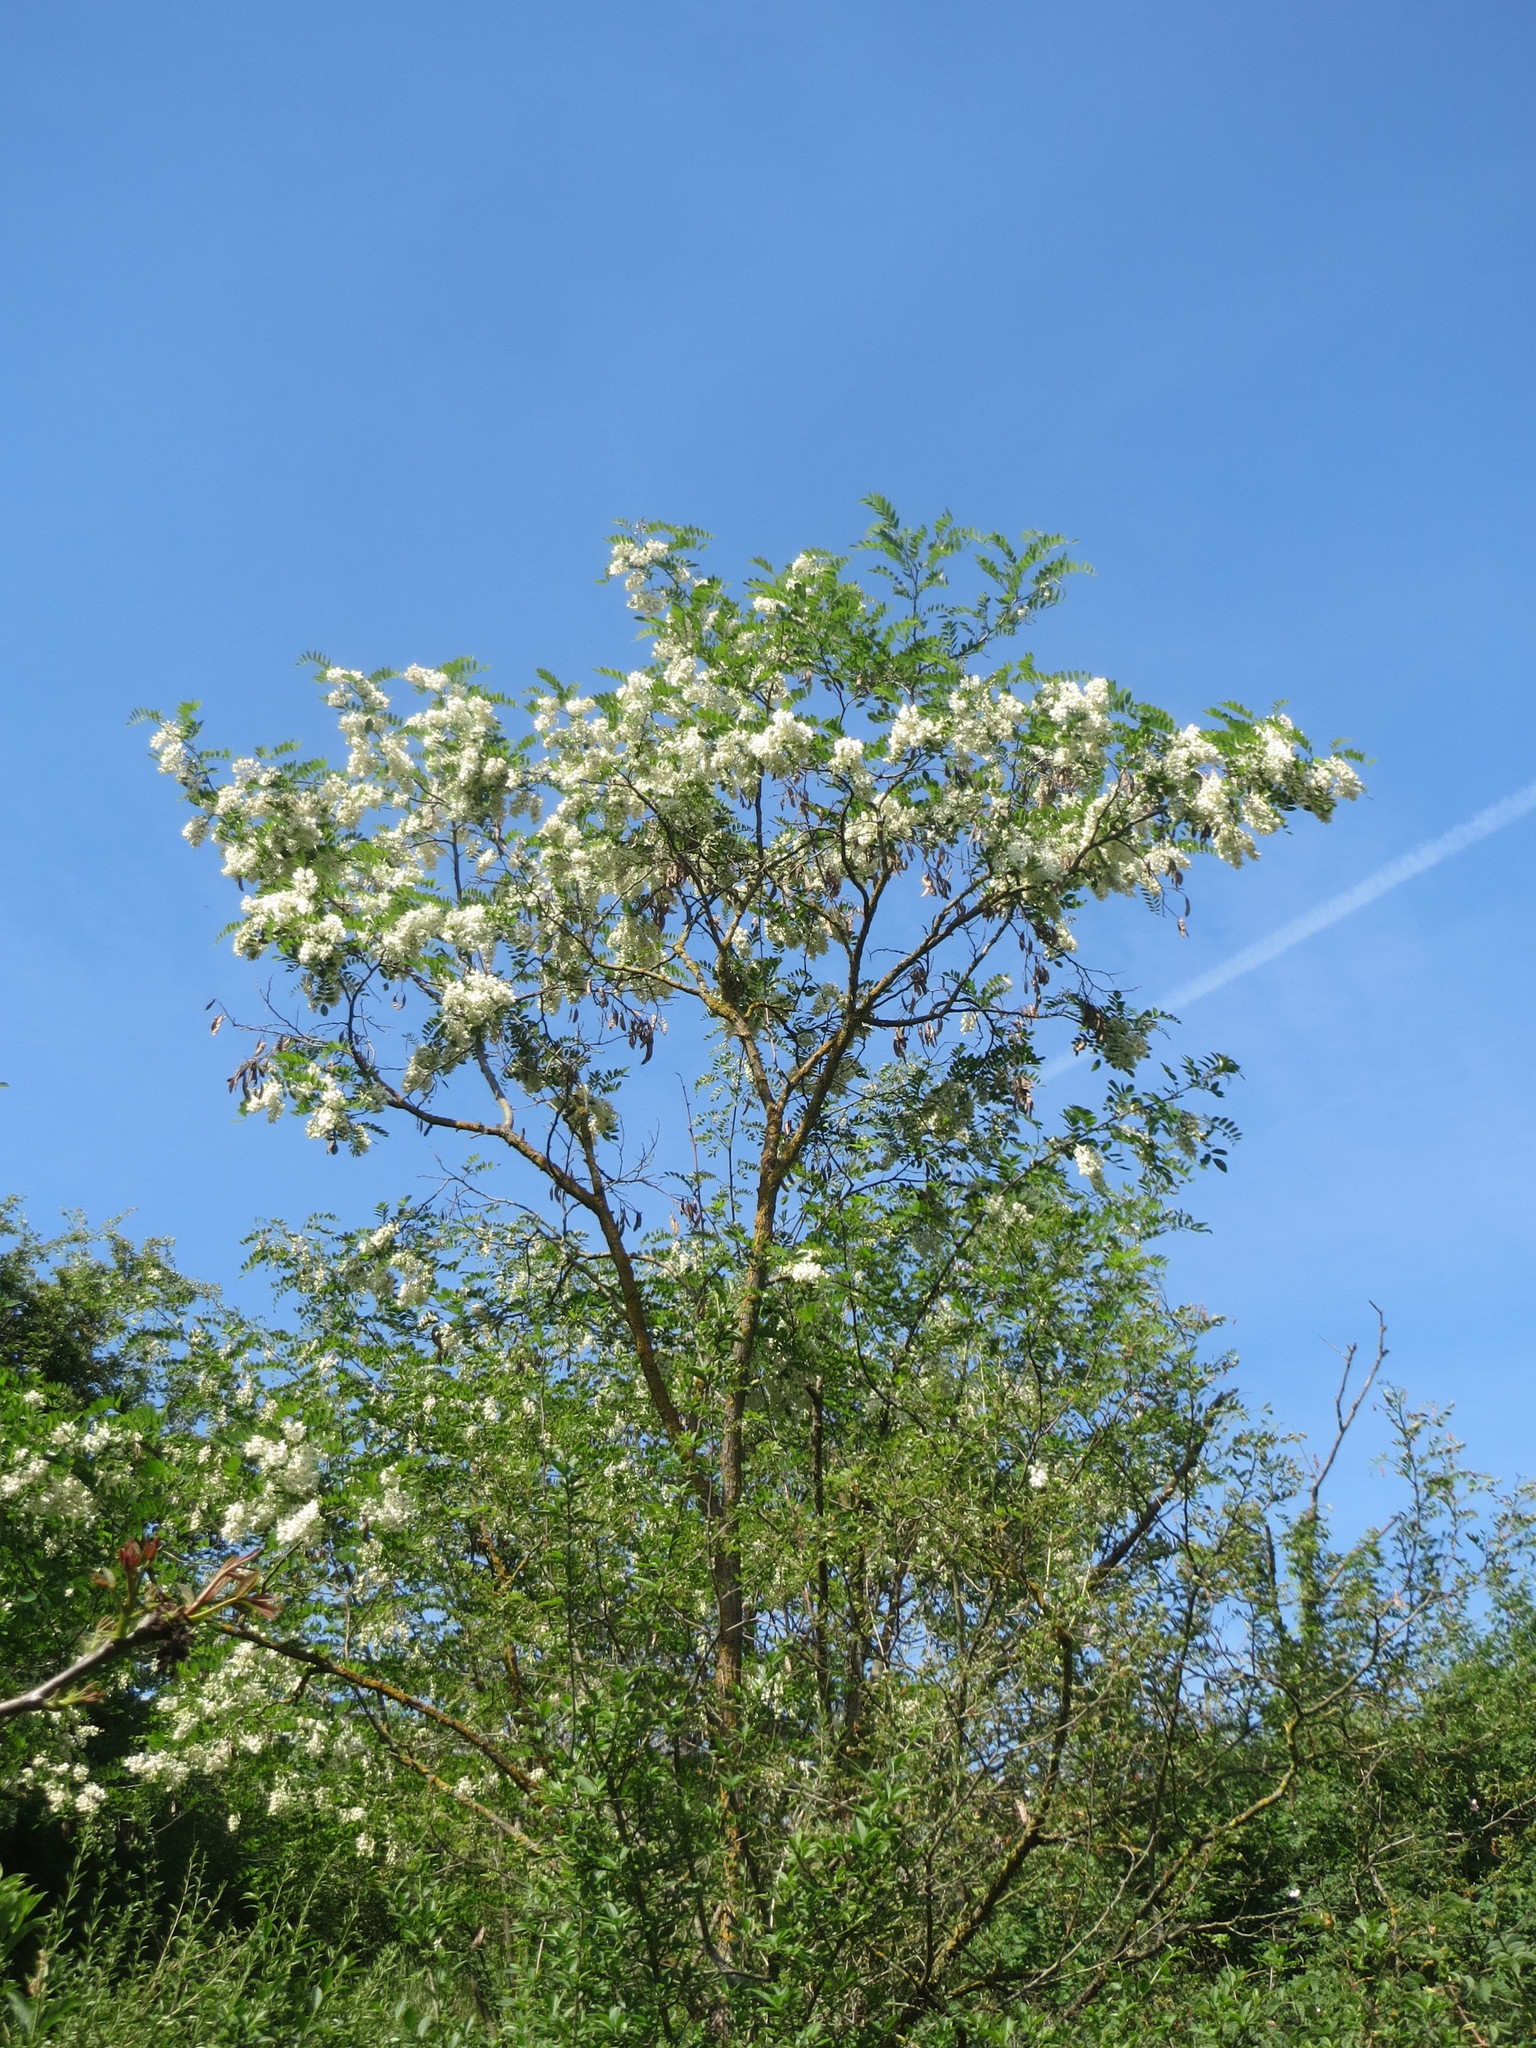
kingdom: Plantae
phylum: Tracheophyta
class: Magnoliopsida
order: Fabales
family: Fabaceae
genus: Robinia
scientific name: Robinia pseudoacacia
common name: Black locust
